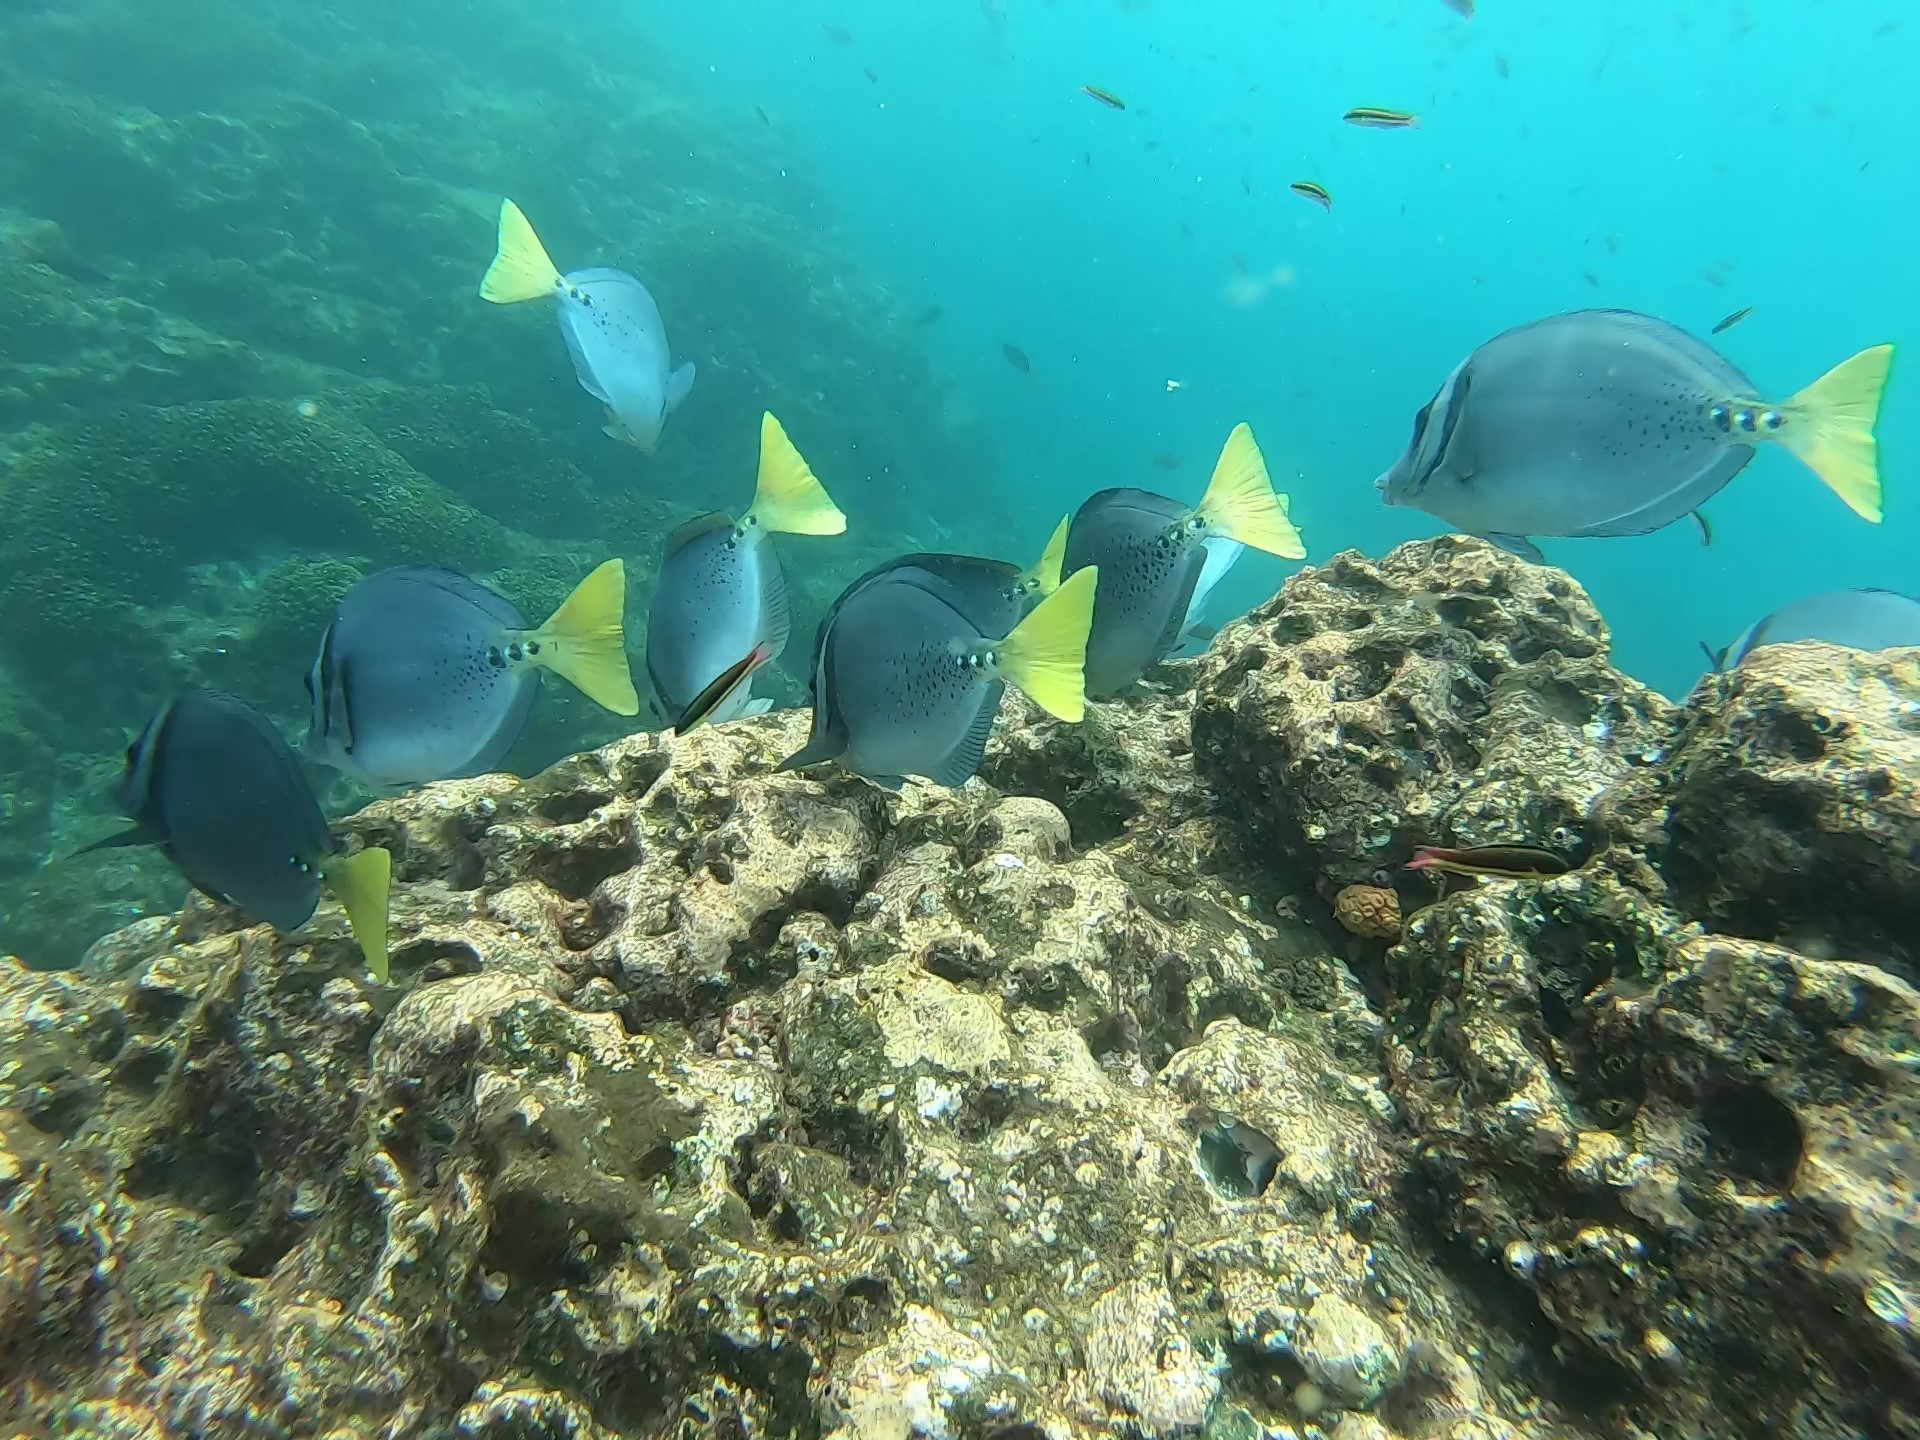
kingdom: Animalia
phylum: Chordata
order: Perciformes
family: Acanthuridae
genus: Prionurus
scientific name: Prionurus laticlavius
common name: Razor surgeonfish
